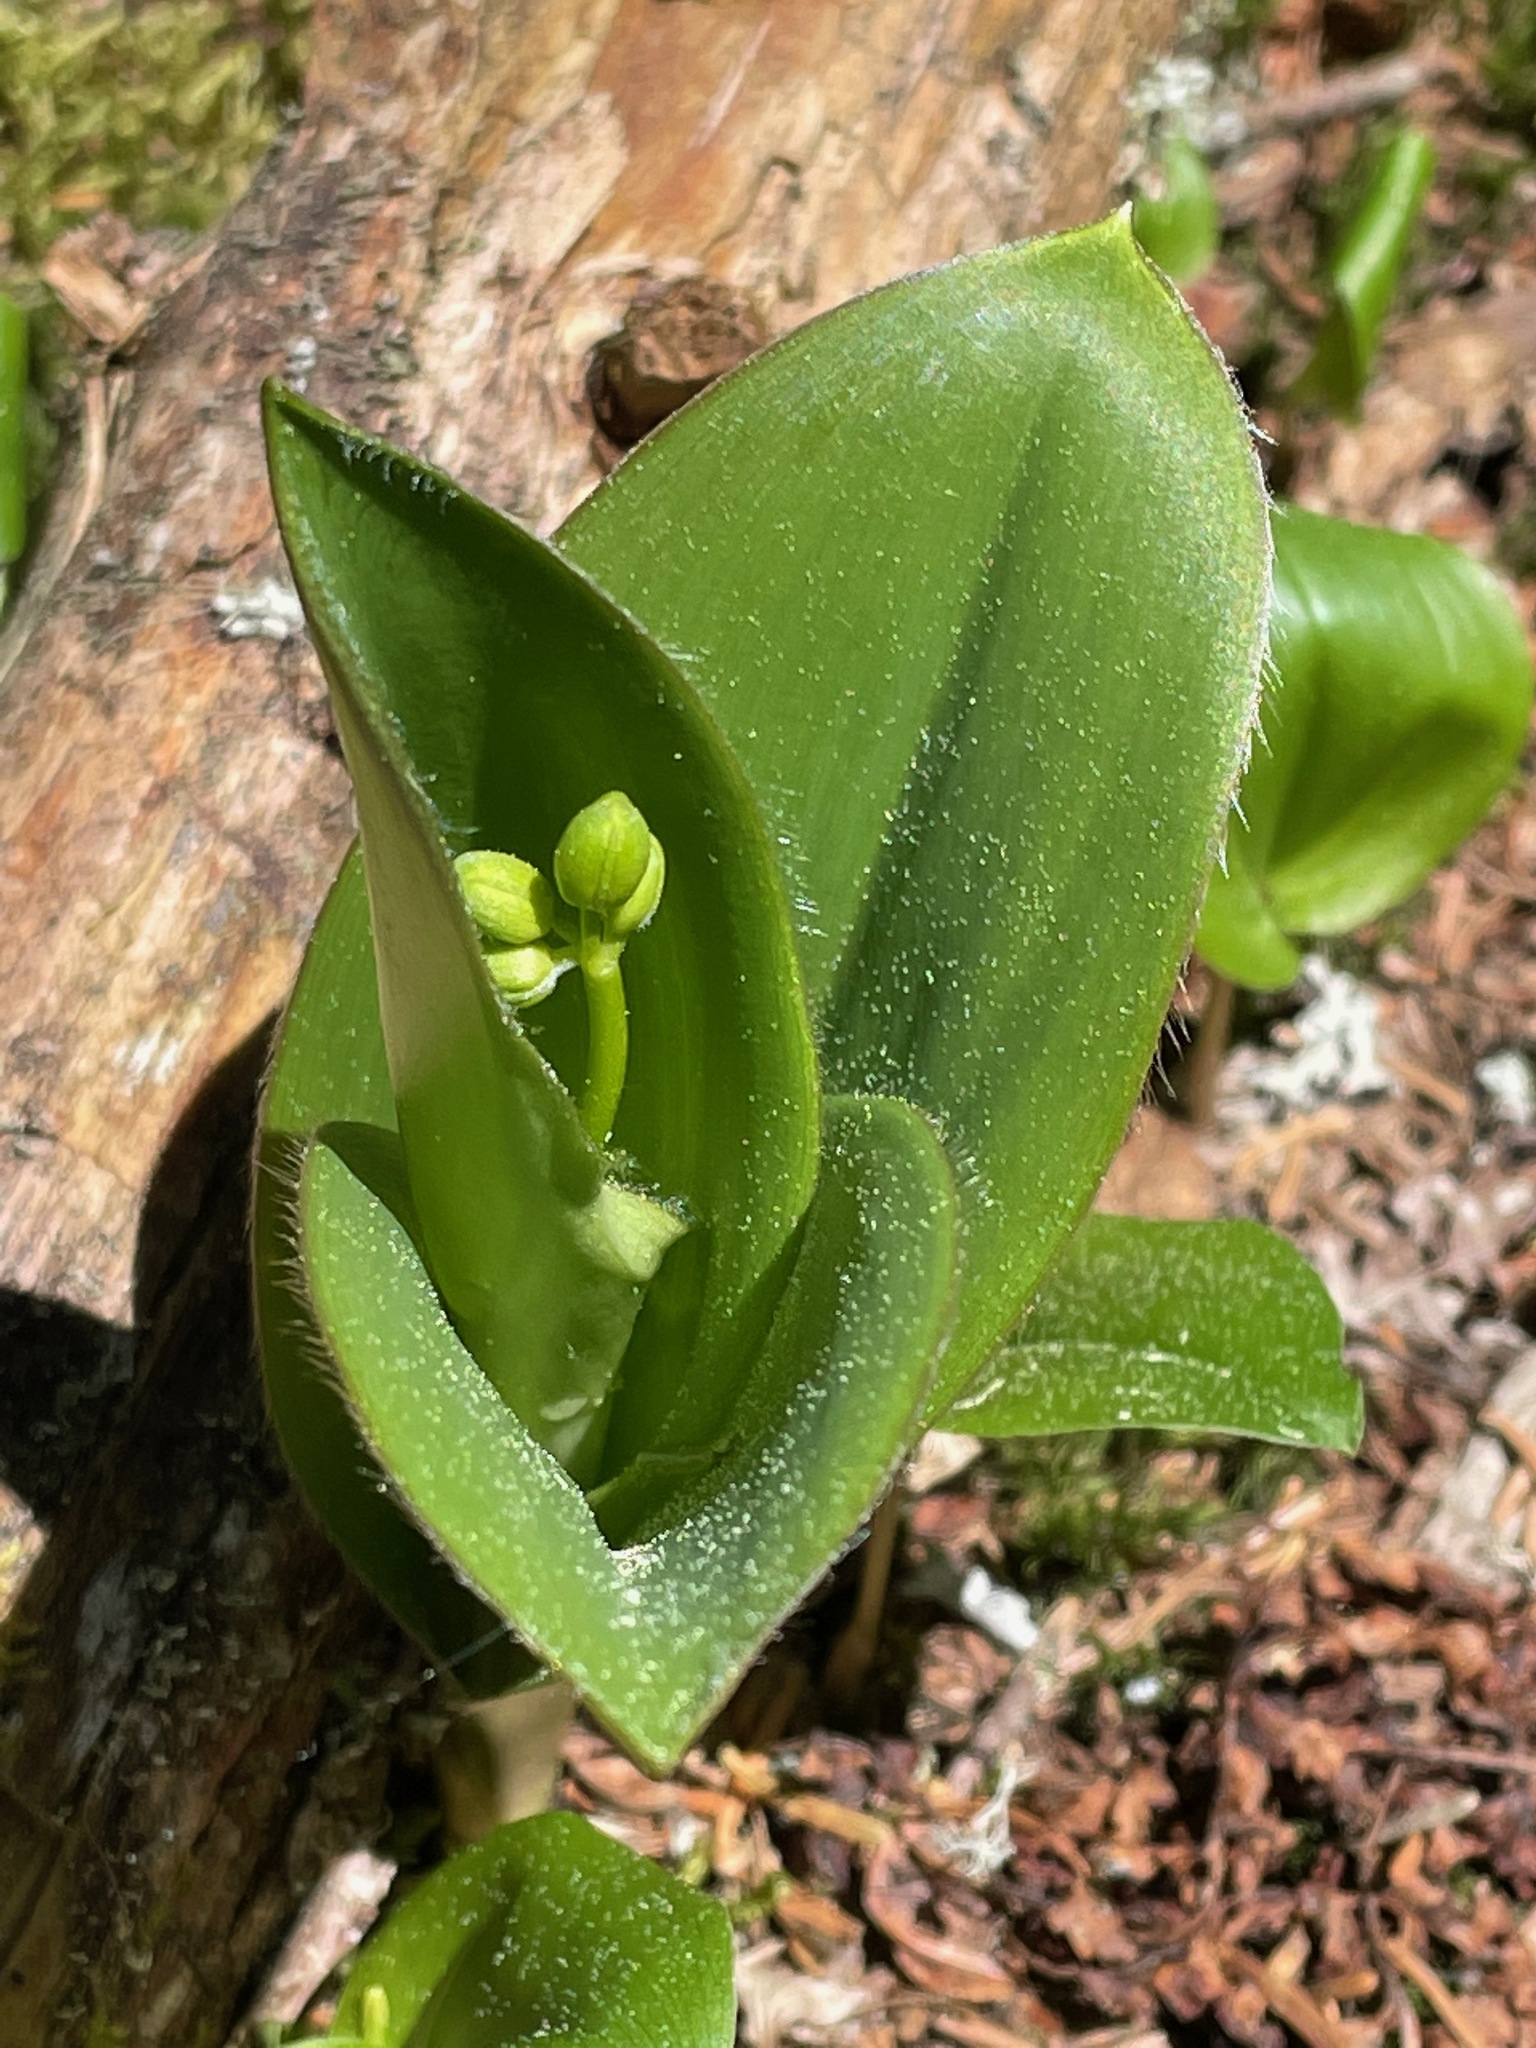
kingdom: Plantae
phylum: Tracheophyta
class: Liliopsida
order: Liliales
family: Liliaceae
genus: Clintonia
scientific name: Clintonia borealis
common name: Yellow clintonia
